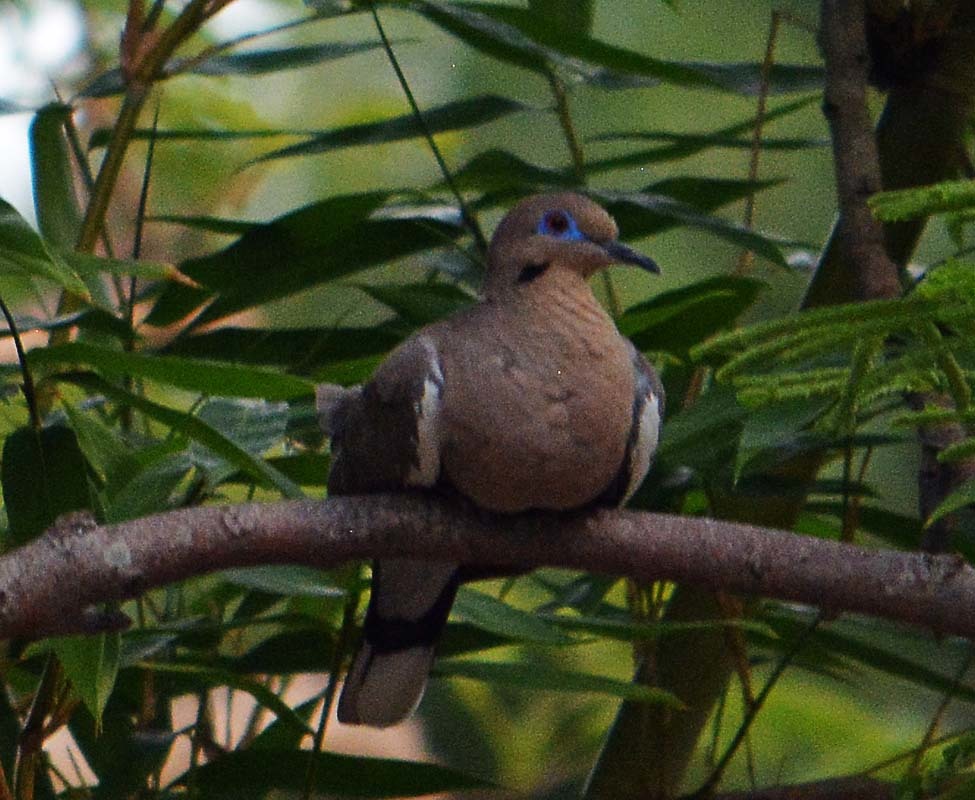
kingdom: Animalia
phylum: Chordata
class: Aves
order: Columbiformes
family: Columbidae
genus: Zenaida
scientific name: Zenaida asiatica
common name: White-winged dove
